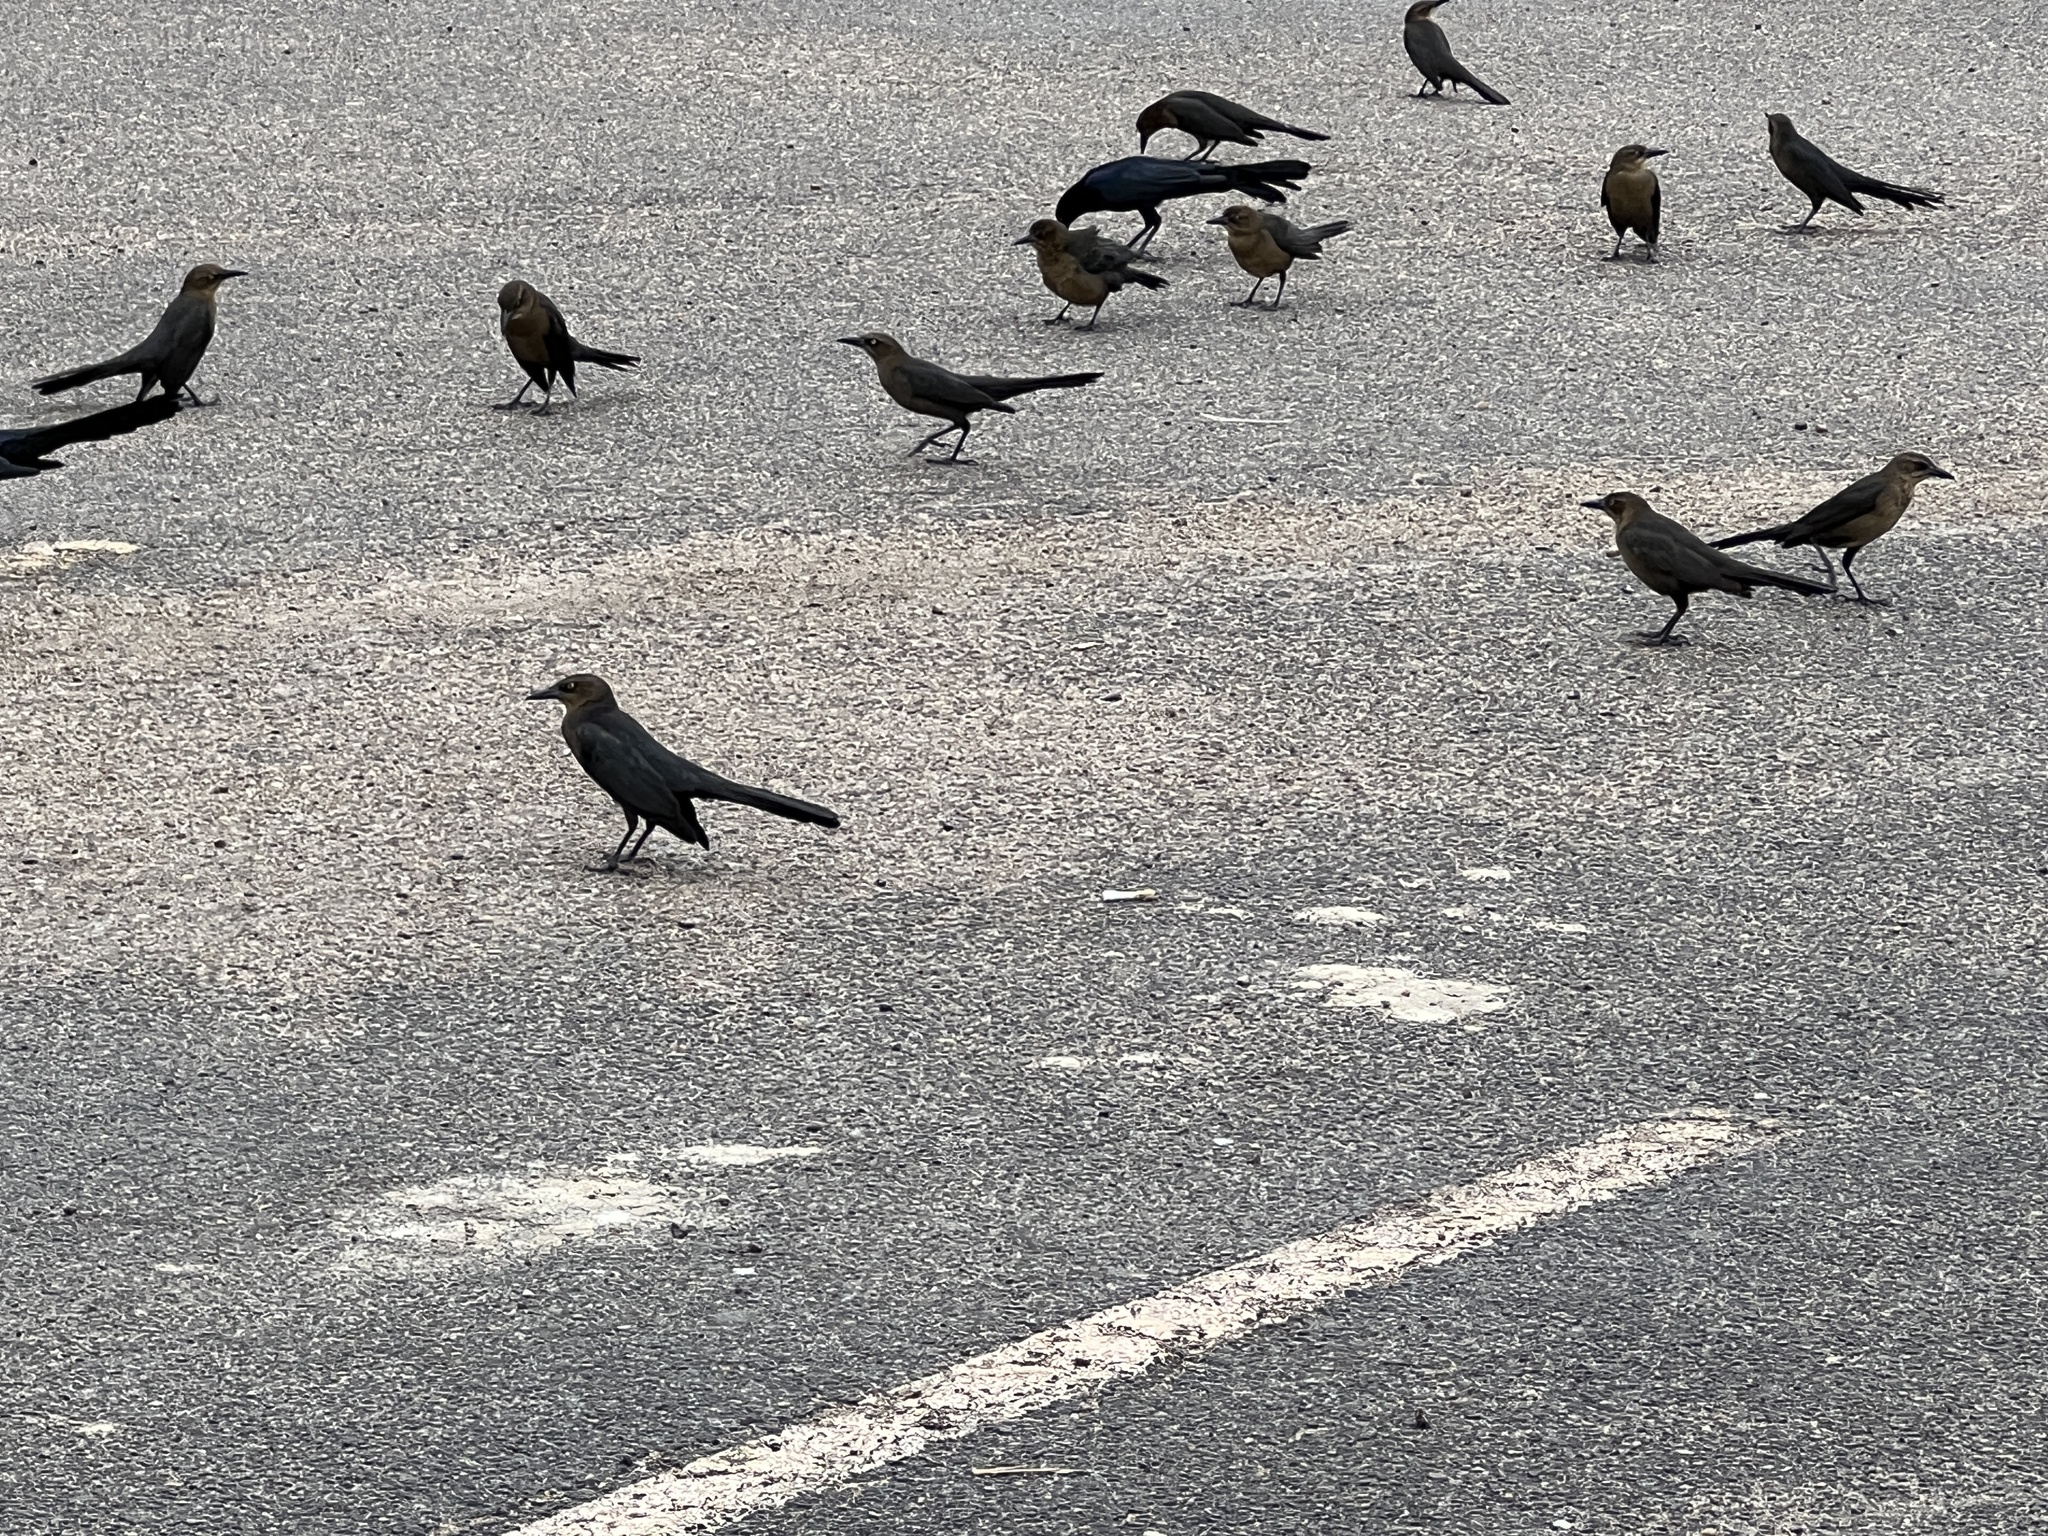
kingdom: Animalia
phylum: Chordata
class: Aves
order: Passeriformes
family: Icteridae
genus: Quiscalus
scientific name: Quiscalus mexicanus
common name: Great-tailed grackle
